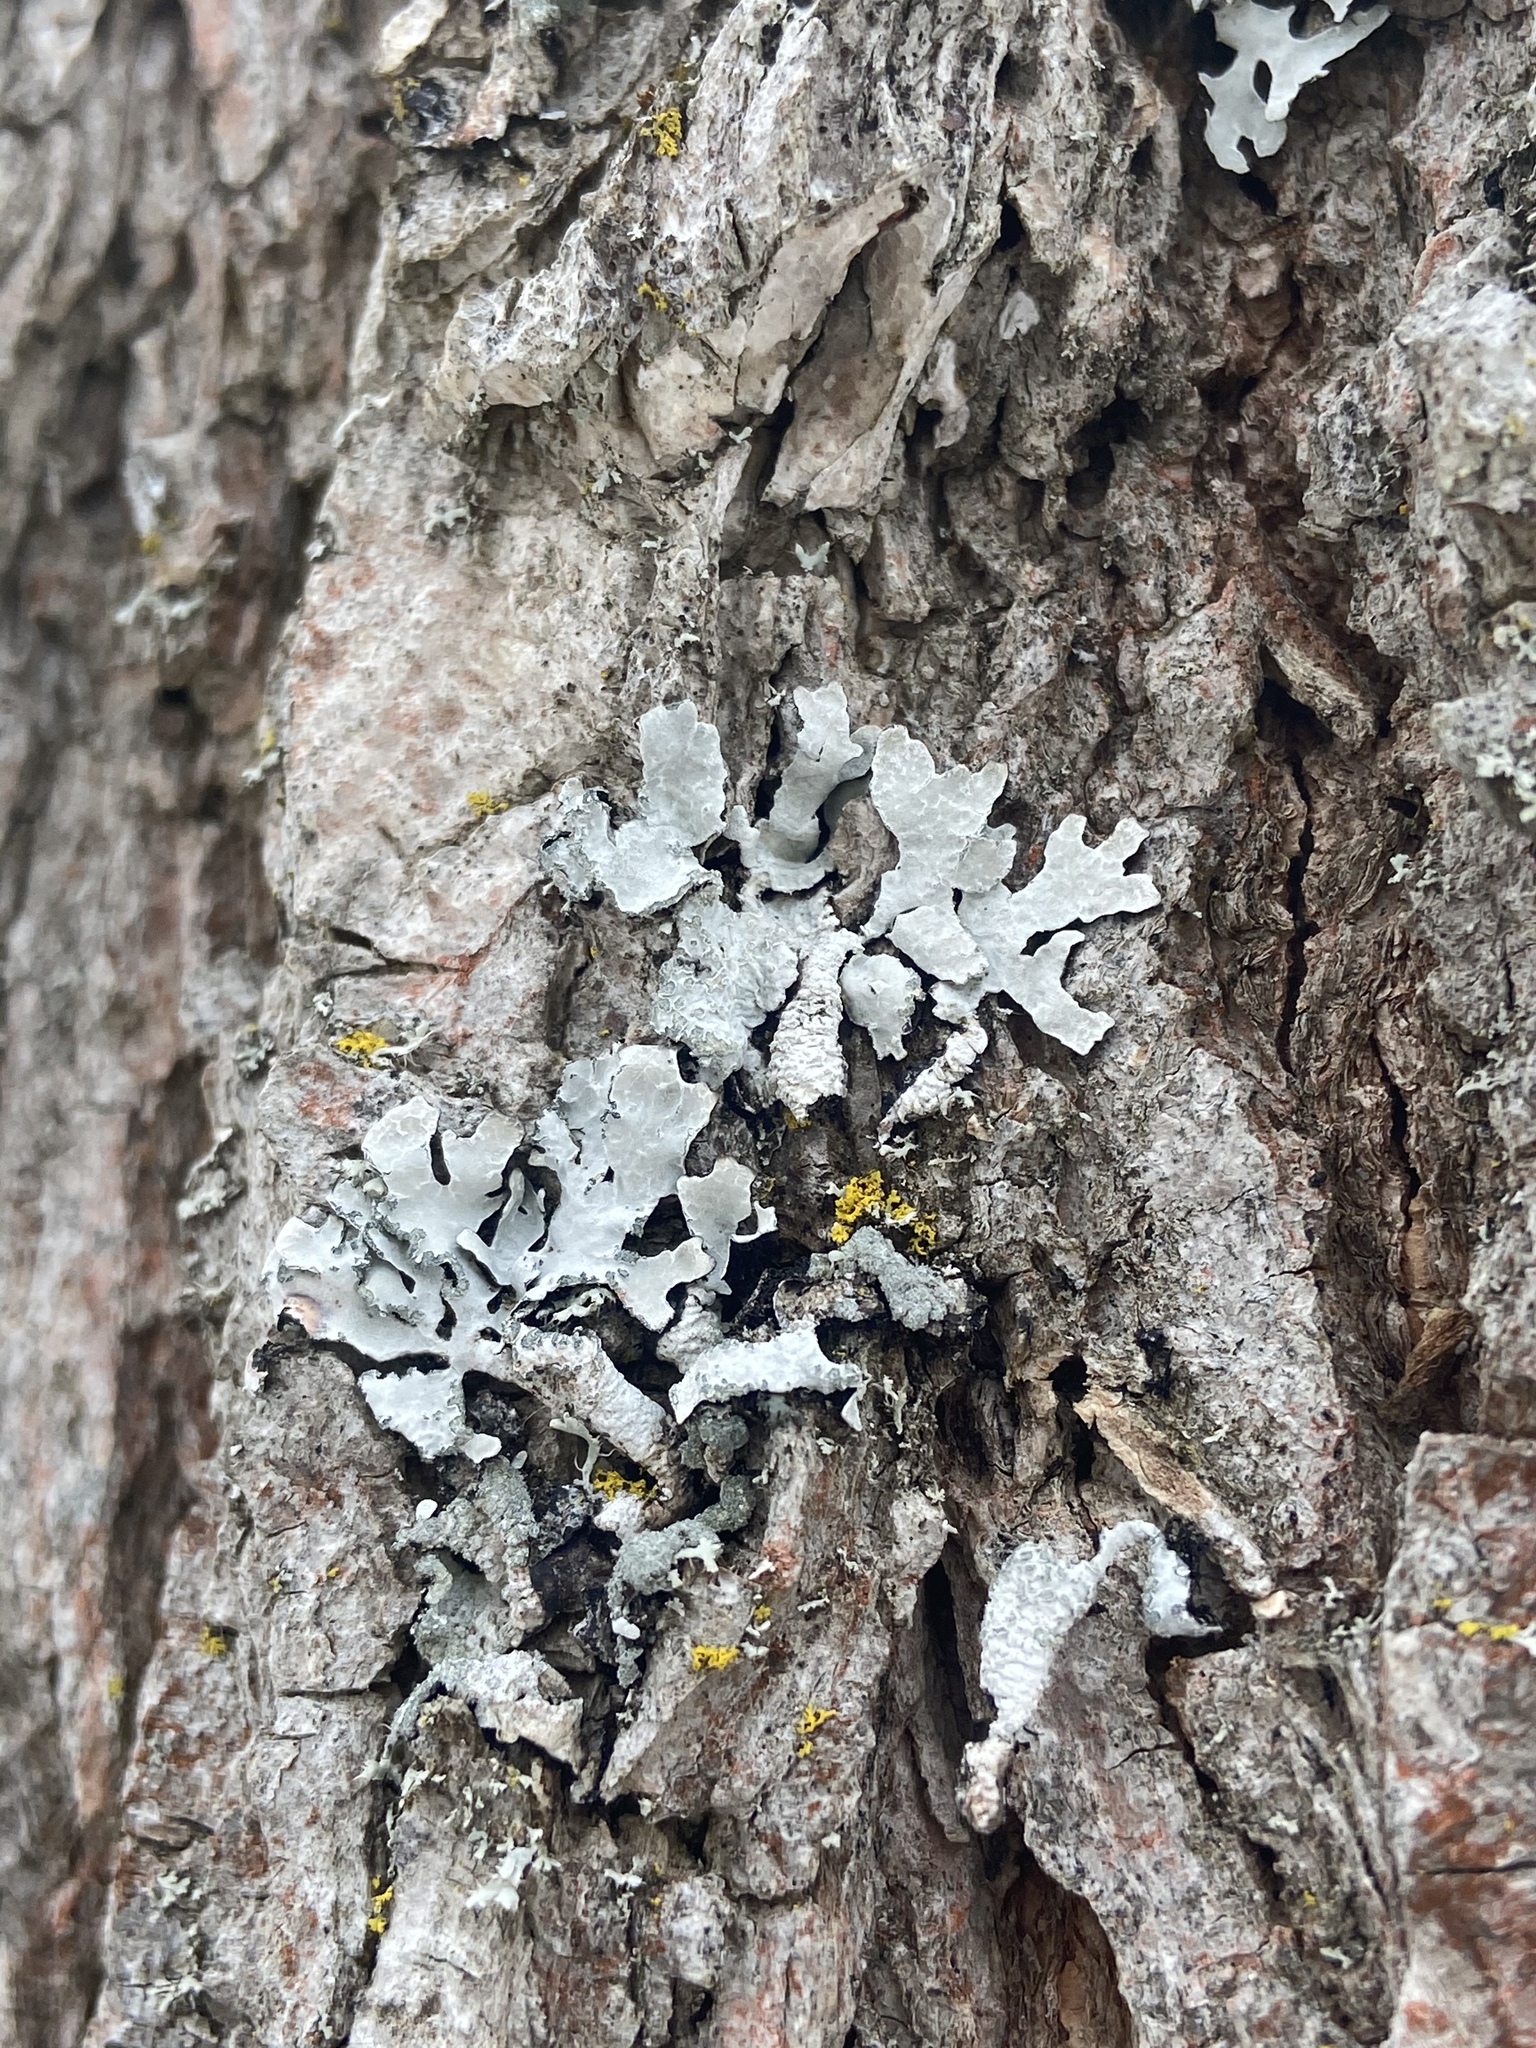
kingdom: Fungi
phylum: Ascomycota
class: Lecanoromycetes
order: Lecanorales
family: Parmeliaceae
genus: Parmelia
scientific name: Parmelia sulcata
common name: Netted shield lichen
